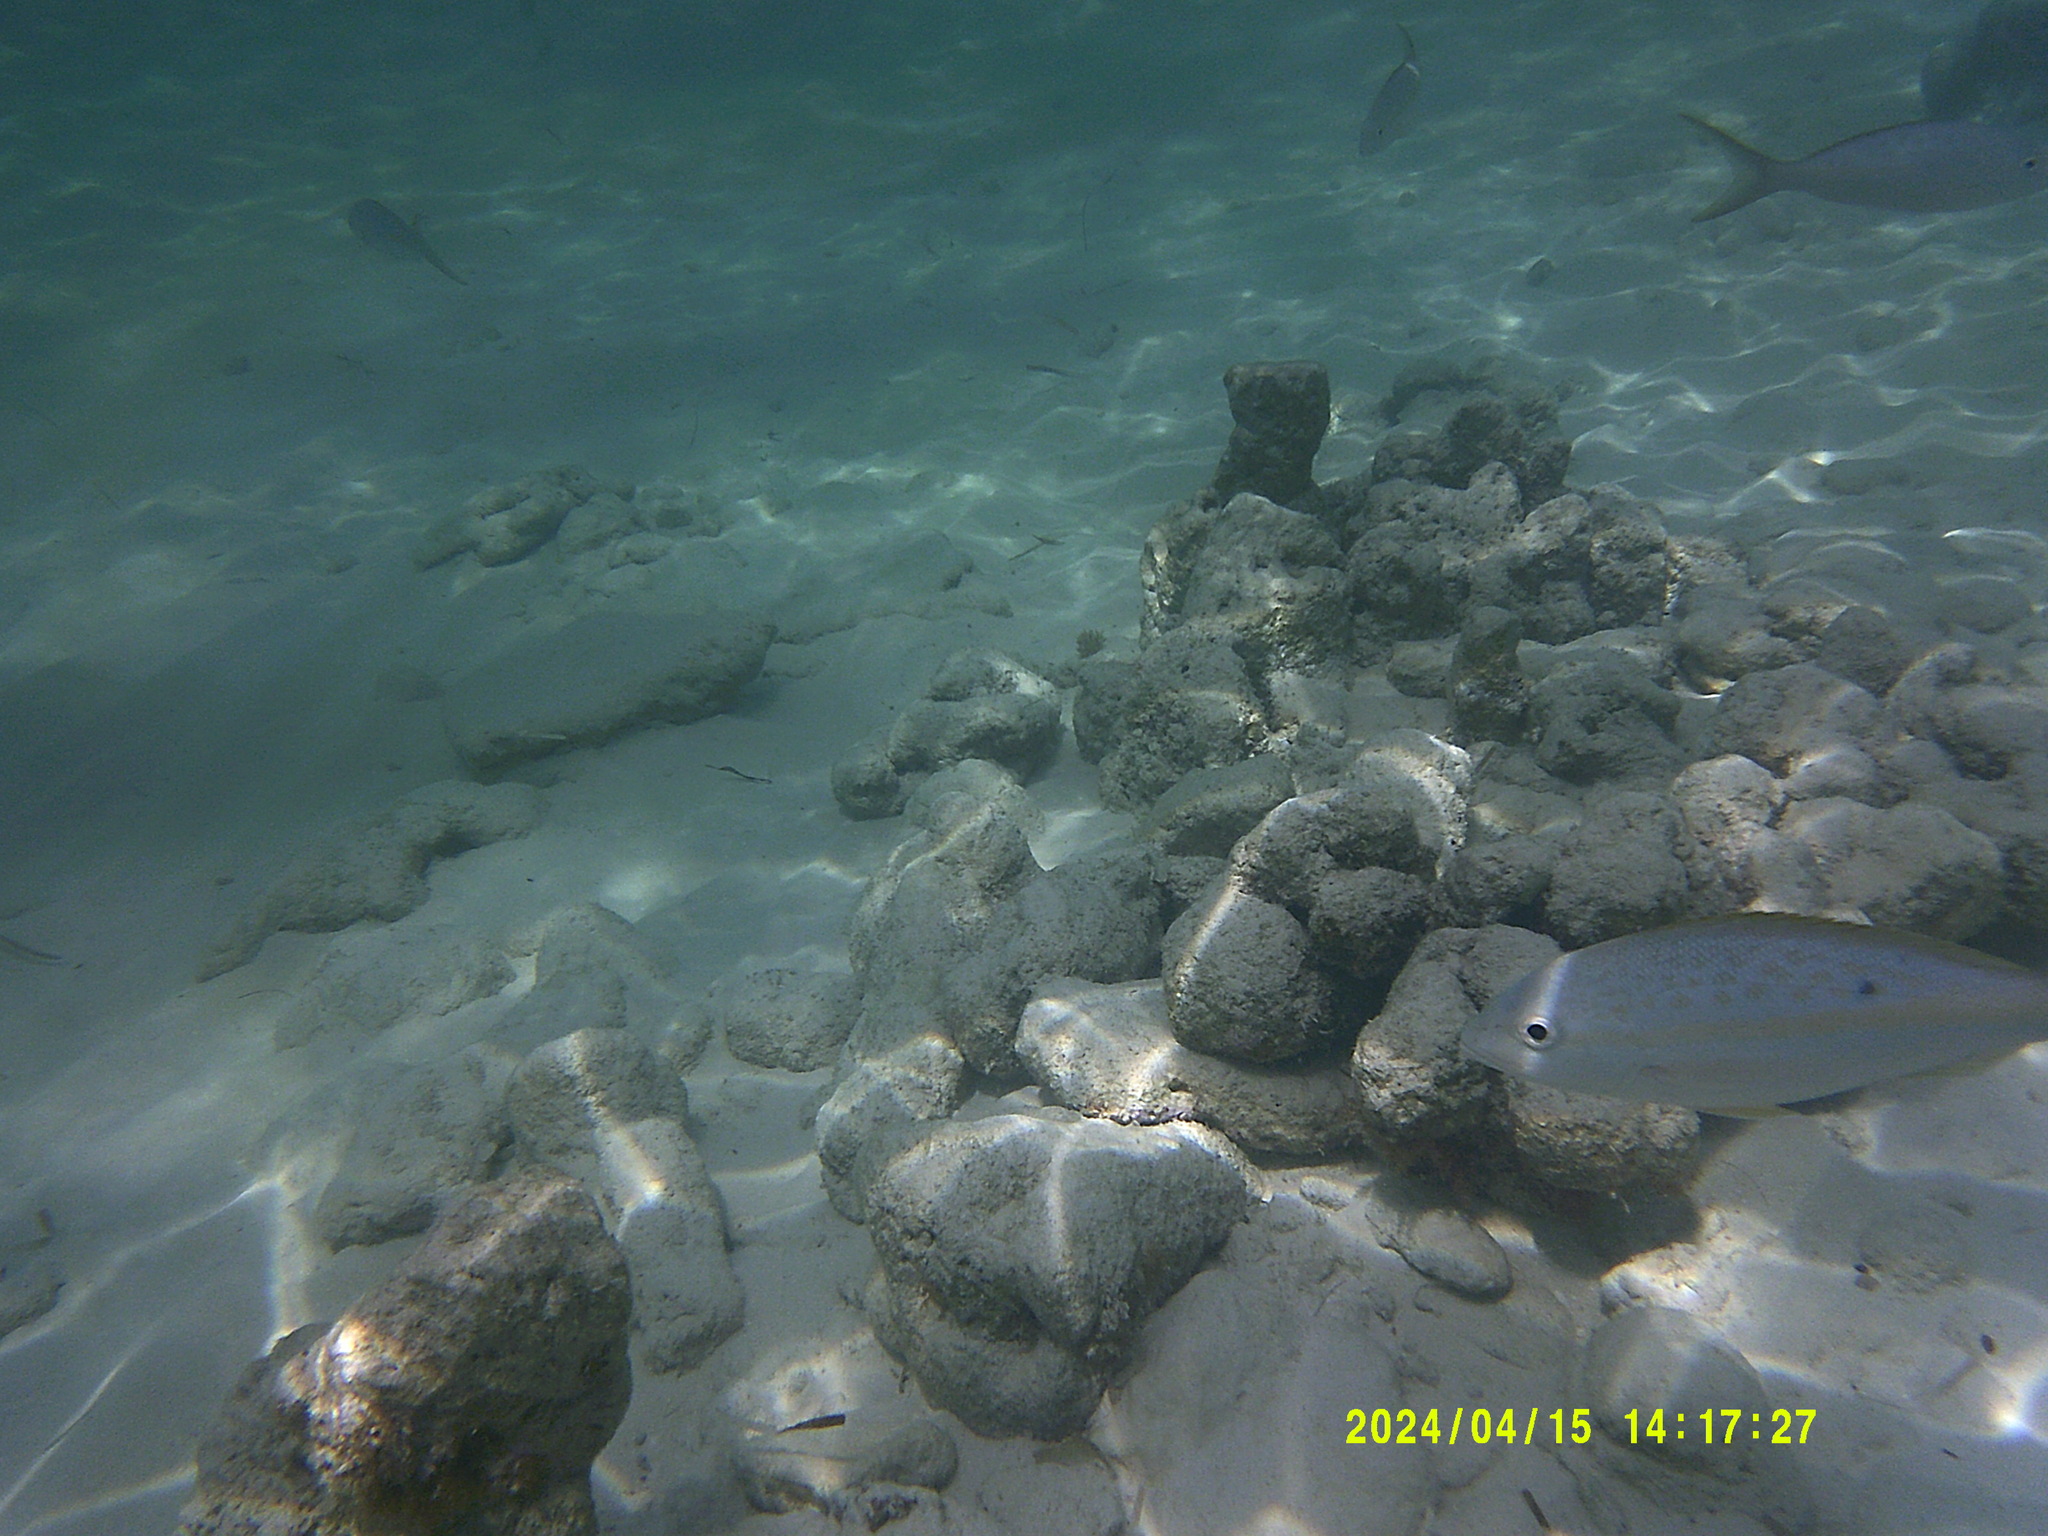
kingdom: Animalia
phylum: Chordata
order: Perciformes
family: Lutjanidae
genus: Ocyurus
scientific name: Ocyurus chrysurus
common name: Yellowtail snapper
